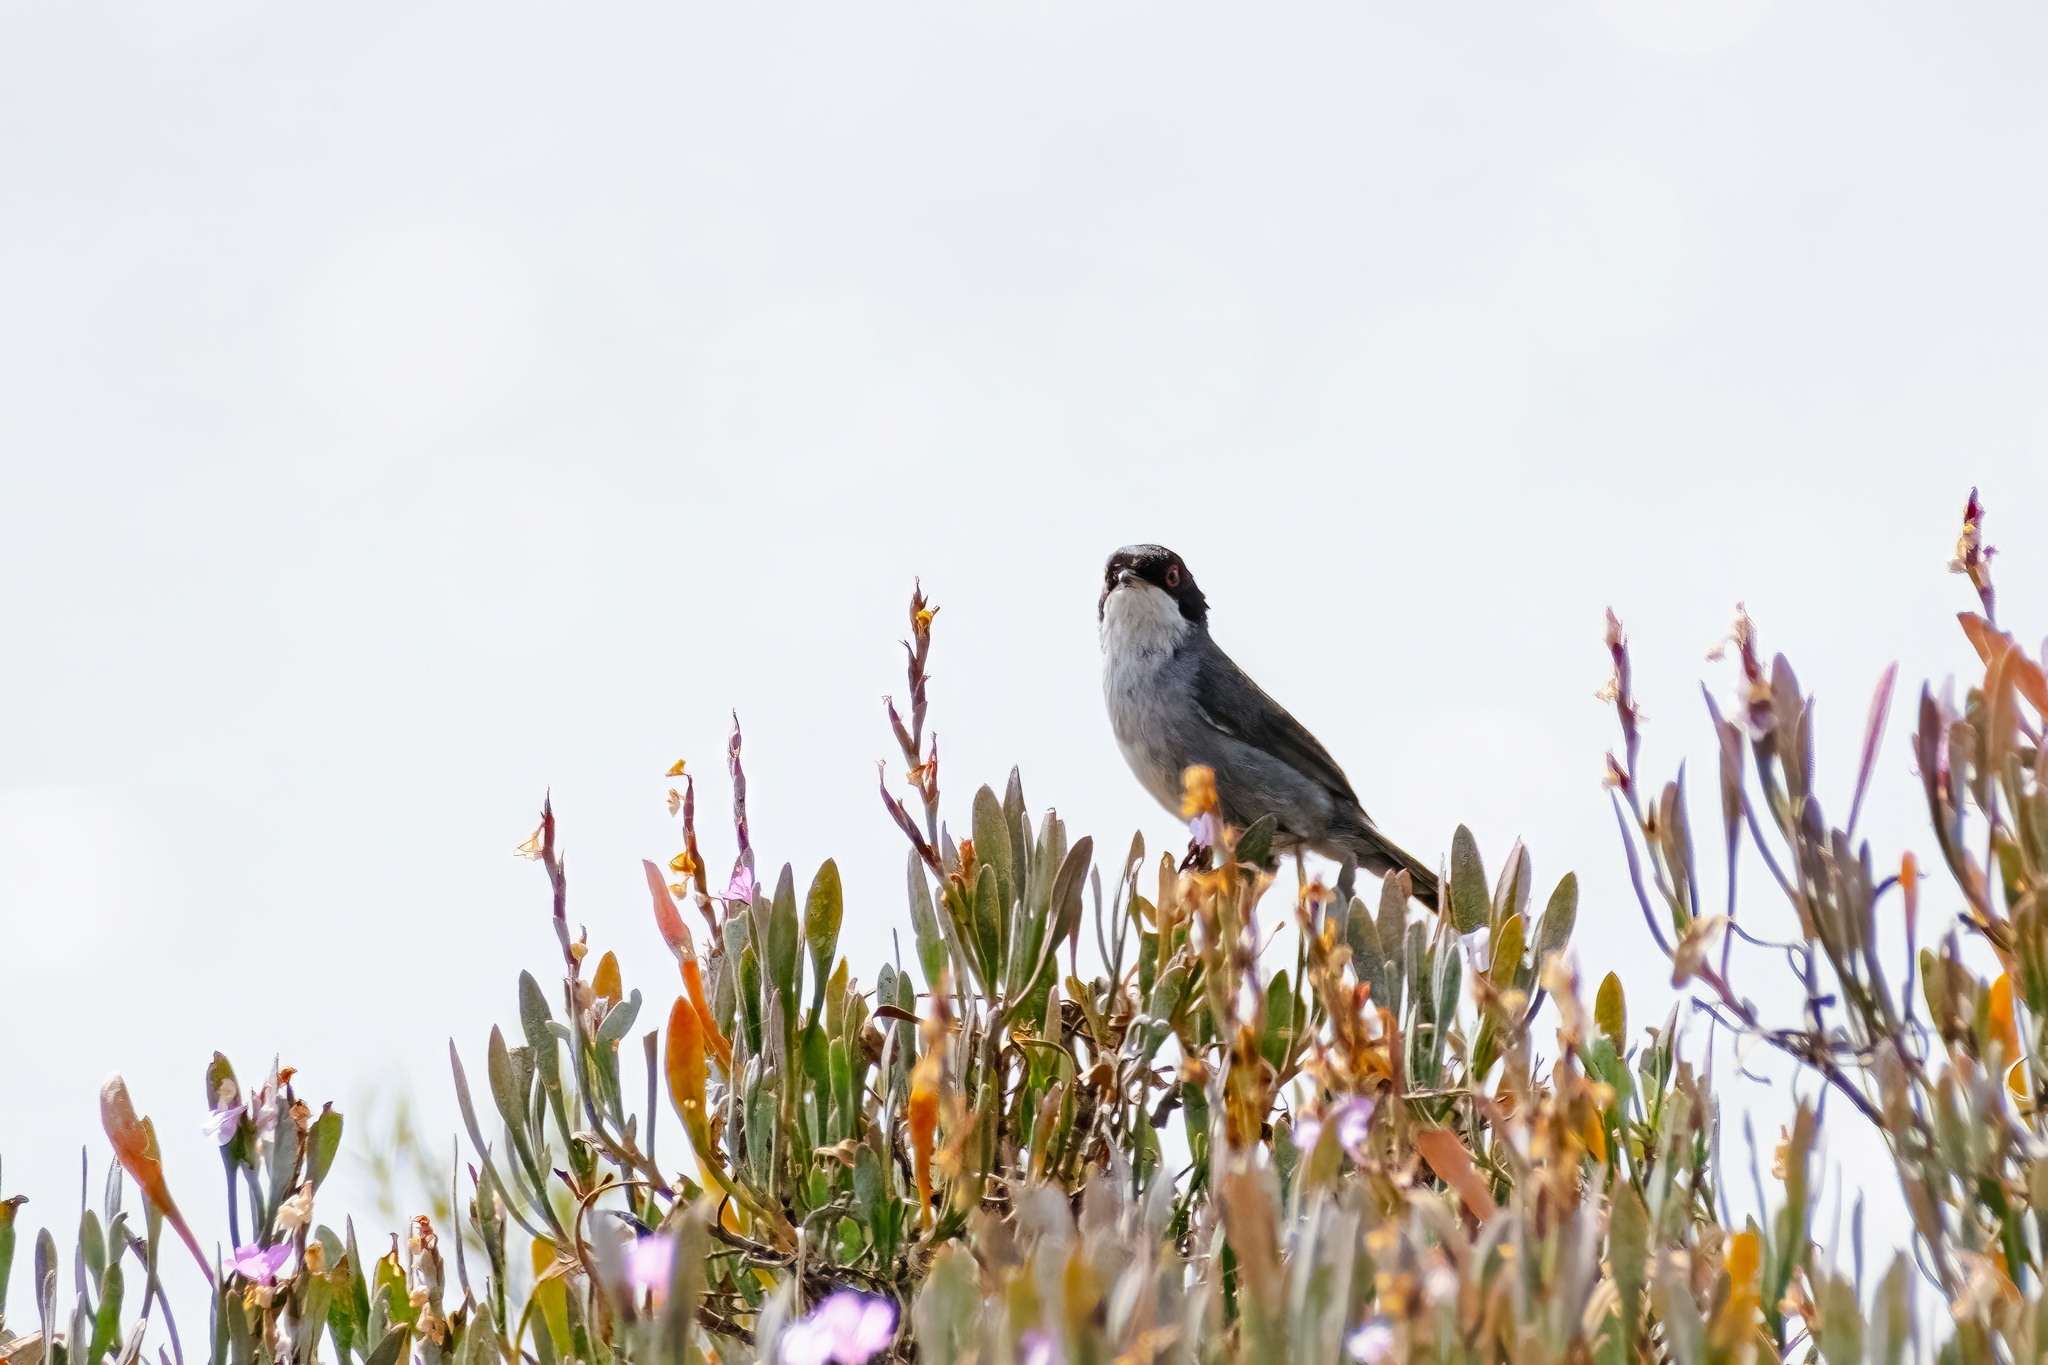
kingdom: Animalia
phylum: Chordata
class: Aves
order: Passeriformes
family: Sylviidae
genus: Curruca
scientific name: Curruca melanocephala
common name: Sardinian warbler
